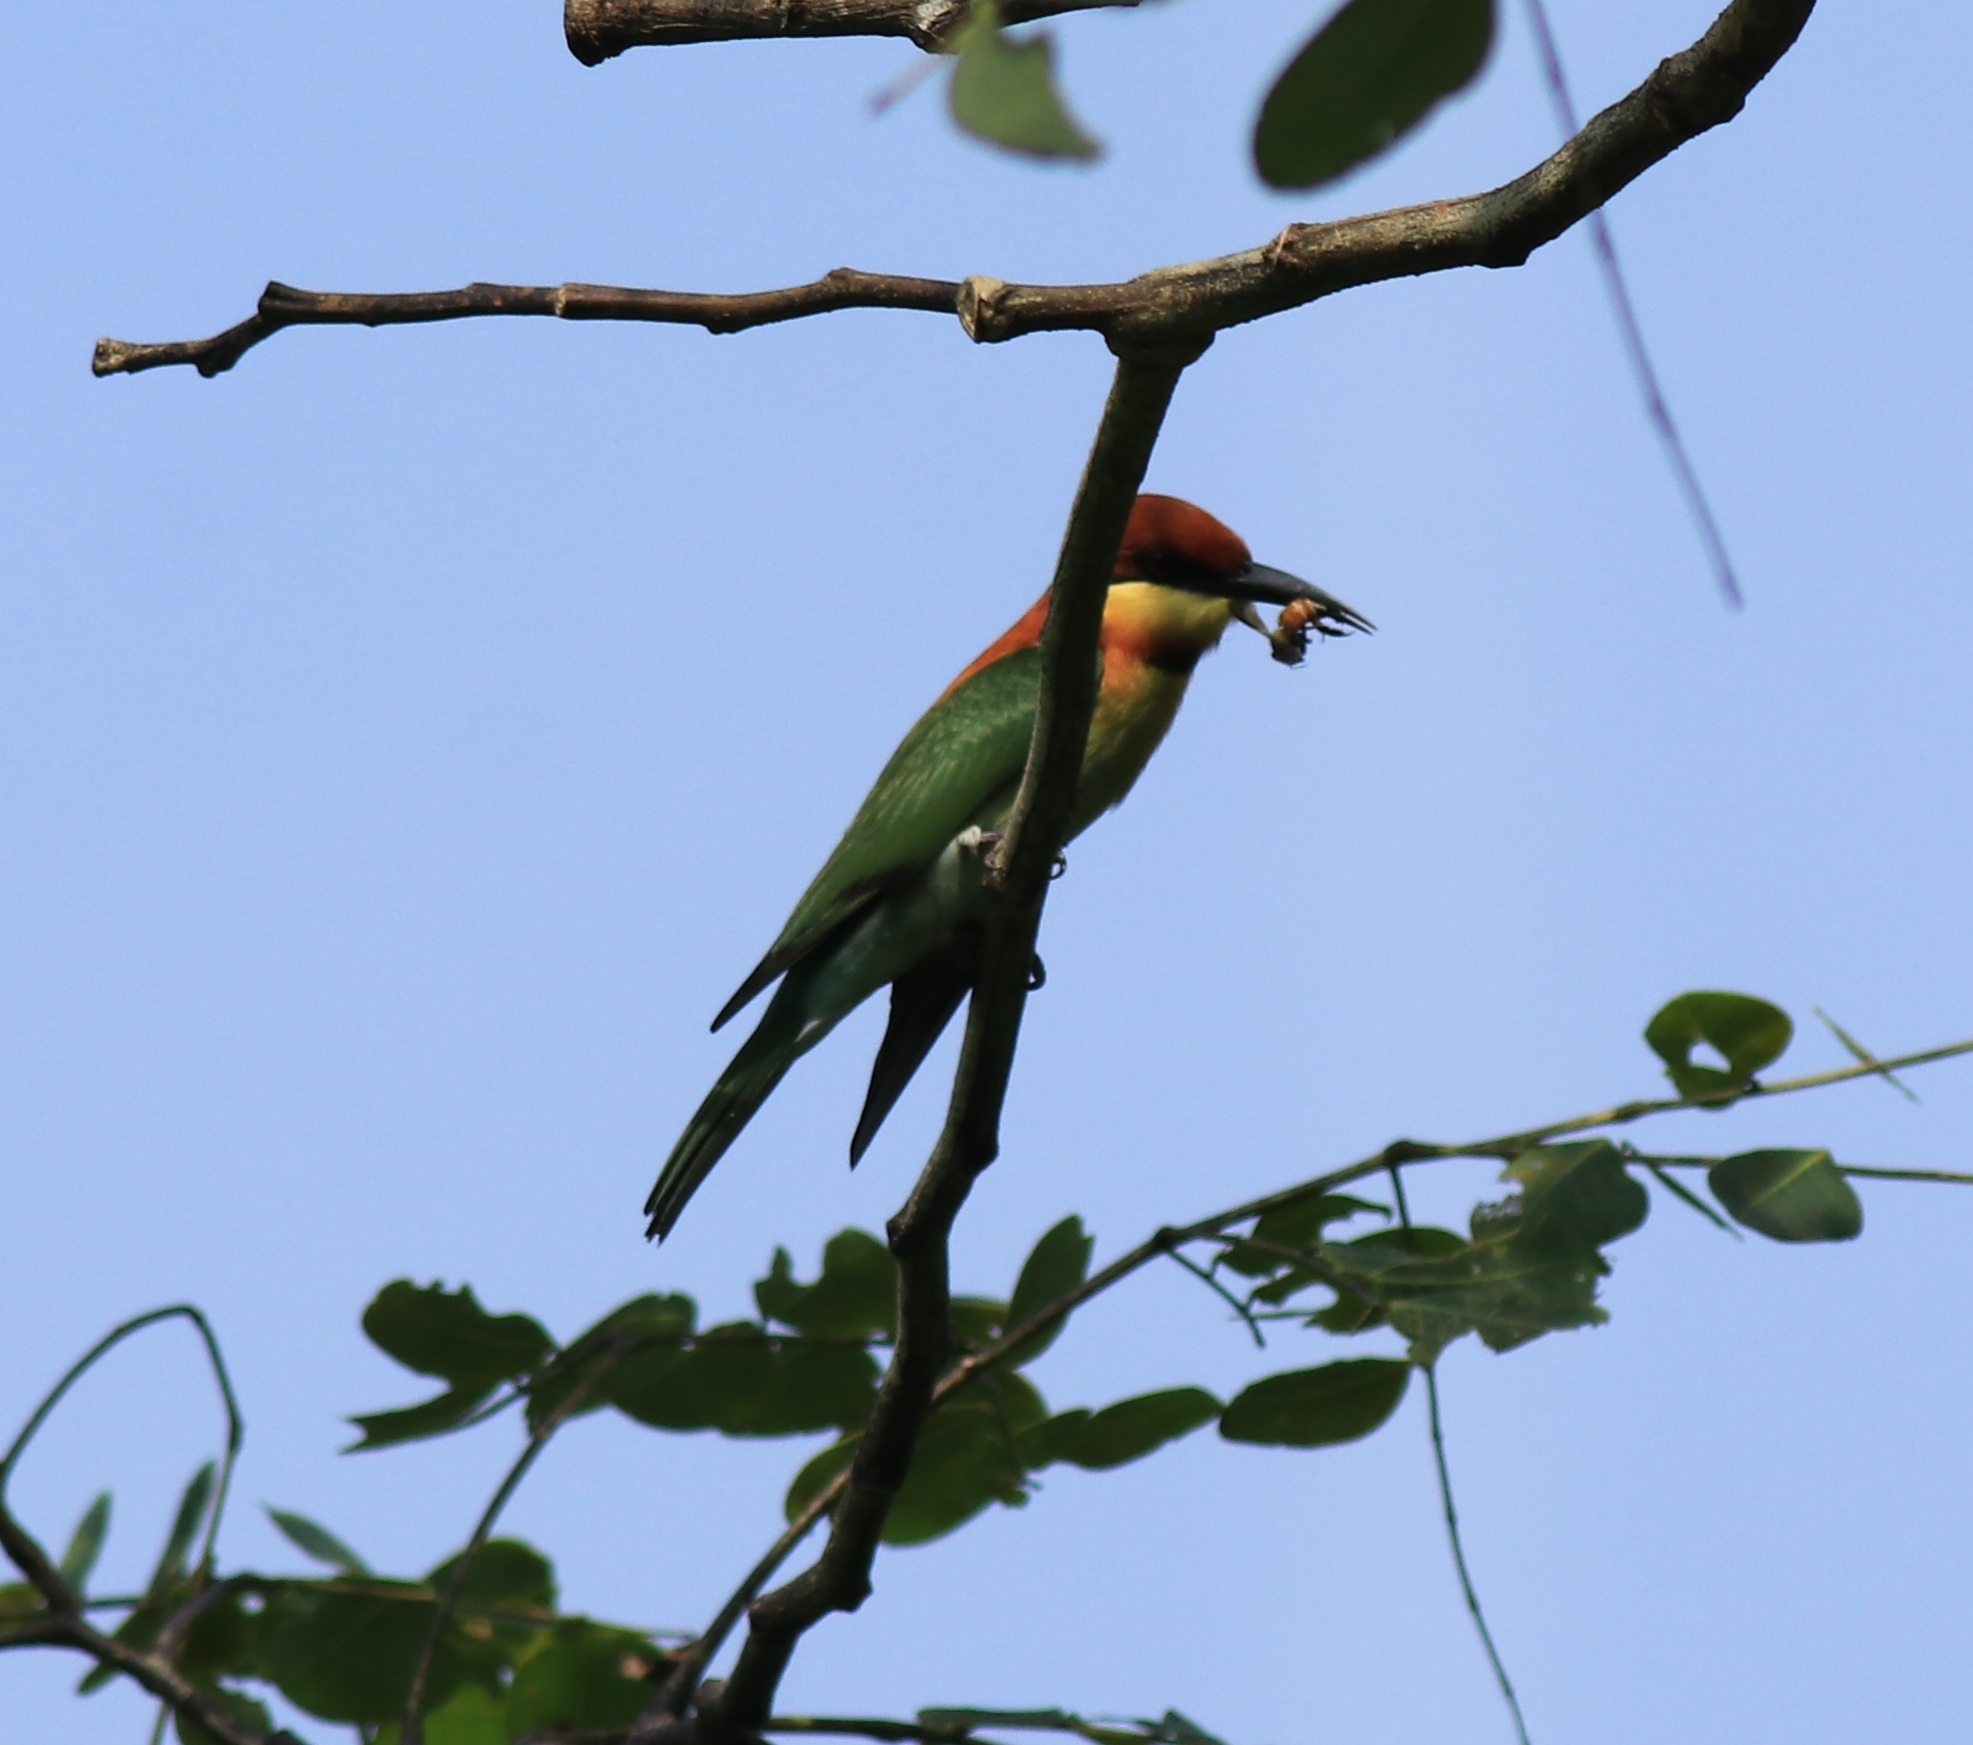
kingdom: Animalia
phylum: Chordata
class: Aves
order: Coraciiformes
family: Meropidae
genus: Merops
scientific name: Merops leschenaulti
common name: Chestnut-headed bee-eater
